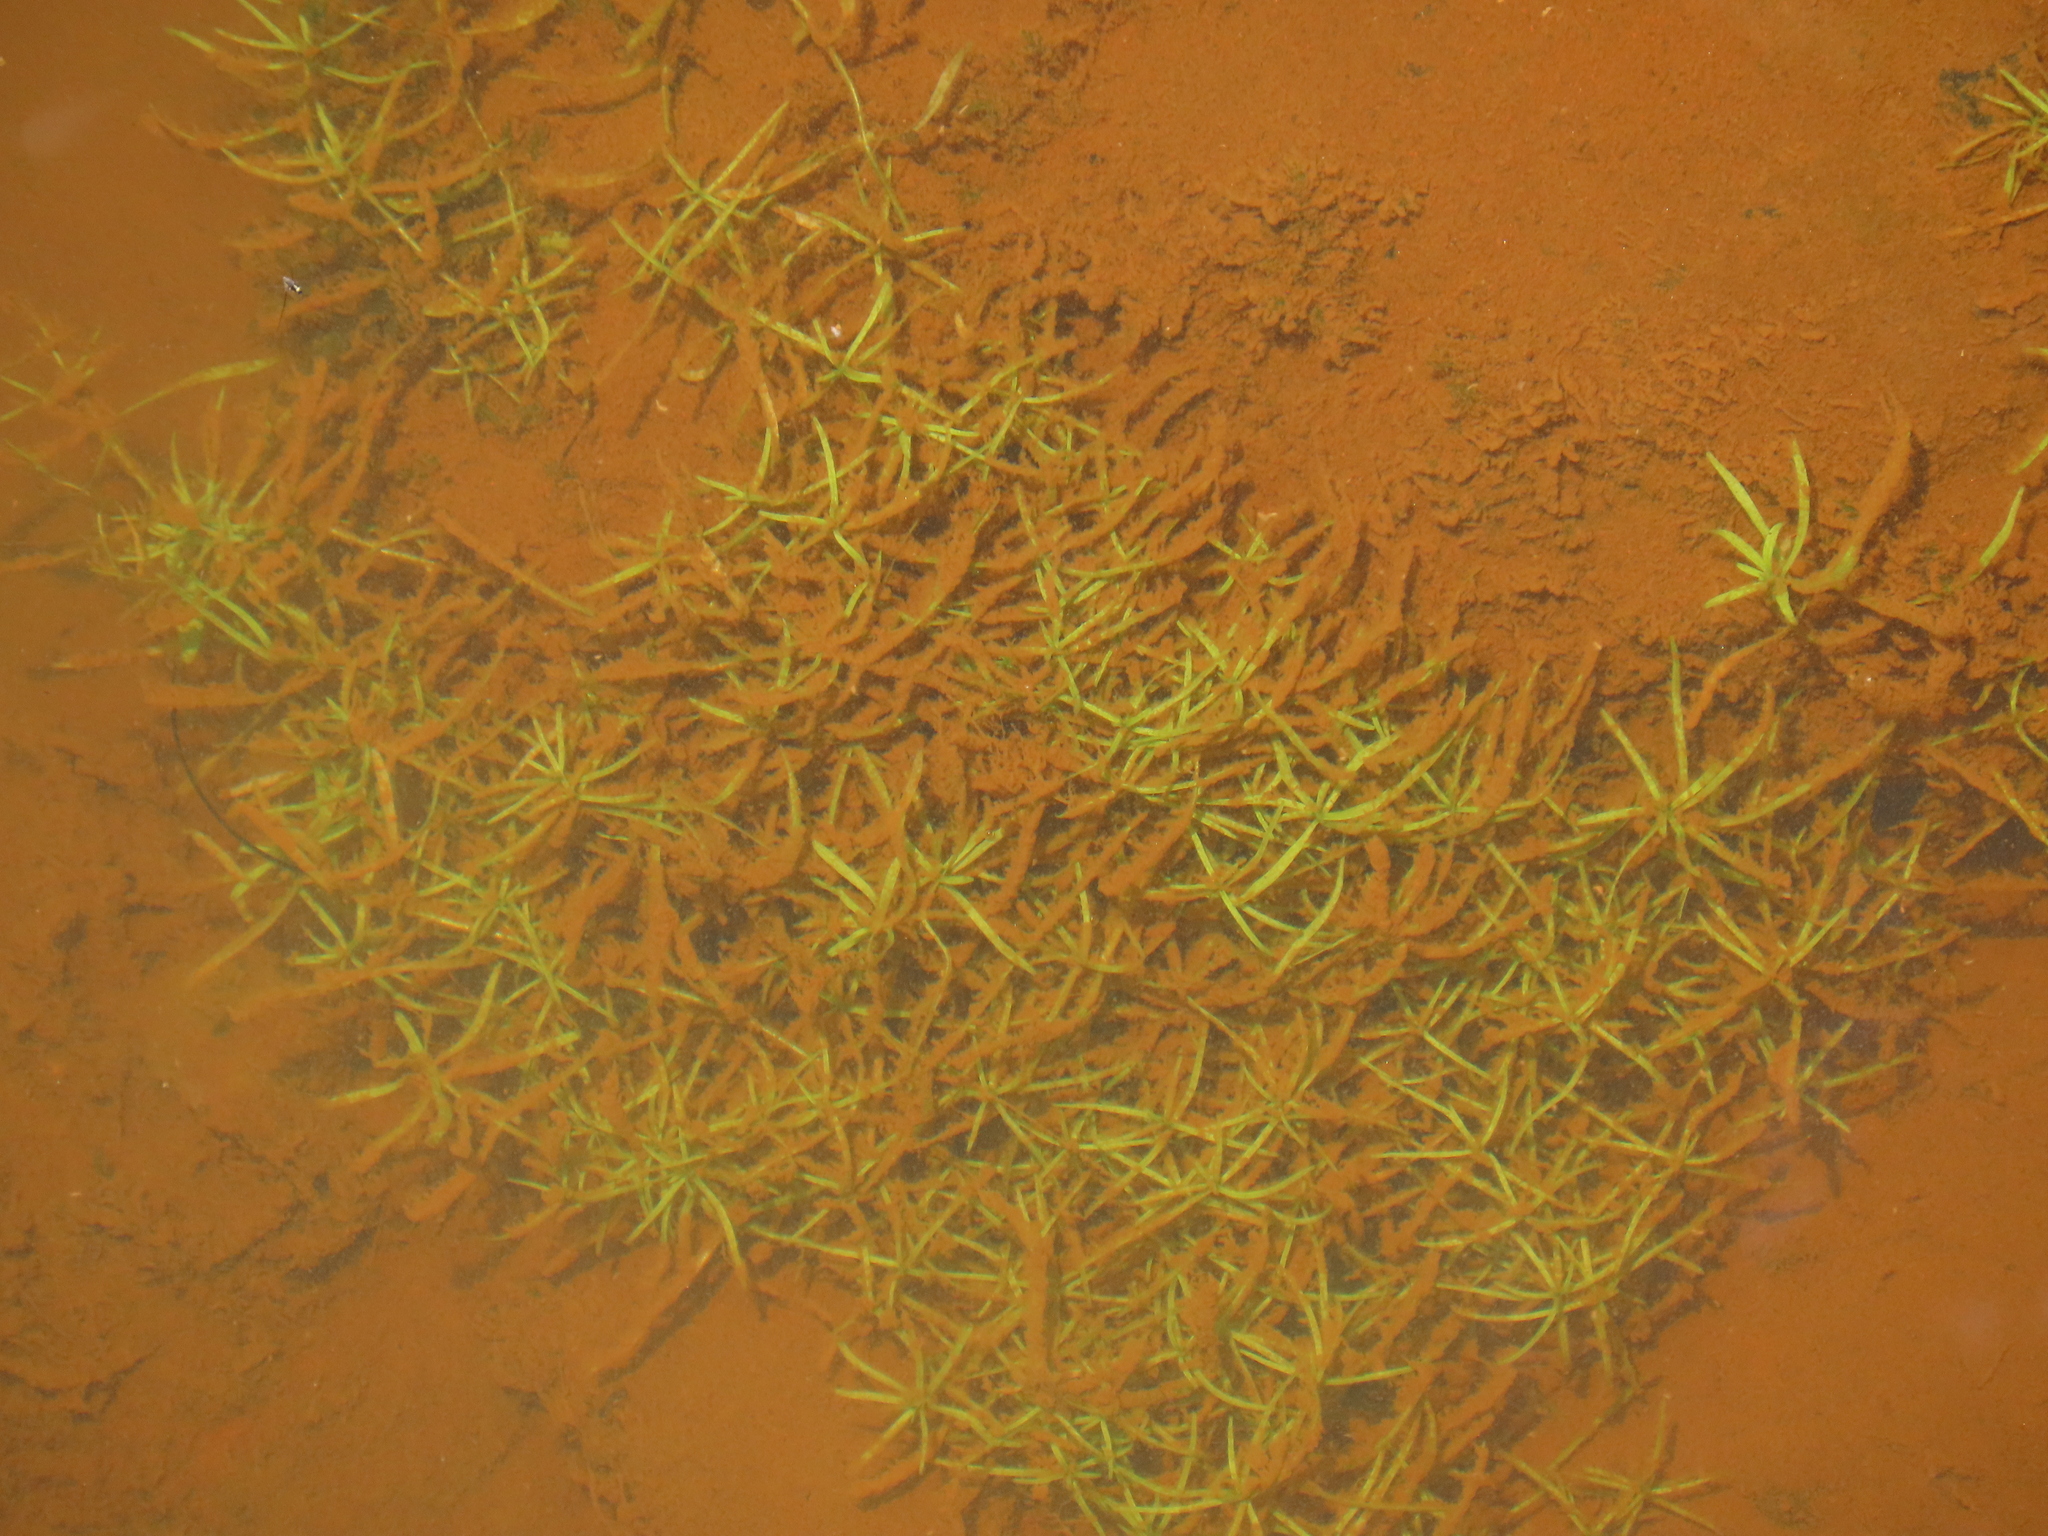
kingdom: Plantae
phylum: Tracheophyta
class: Magnoliopsida
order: Lamiales
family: Plantaginaceae
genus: Callitriche
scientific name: Callitriche heterophylla
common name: Two-headed water-starwort
